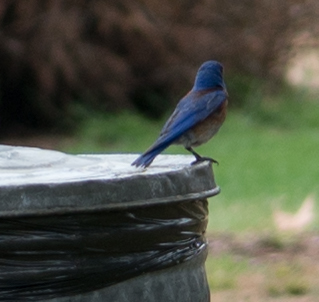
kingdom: Animalia
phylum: Chordata
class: Aves
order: Passeriformes
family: Turdidae
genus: Sialia
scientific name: Sialia mexicana
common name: Western bluebird
